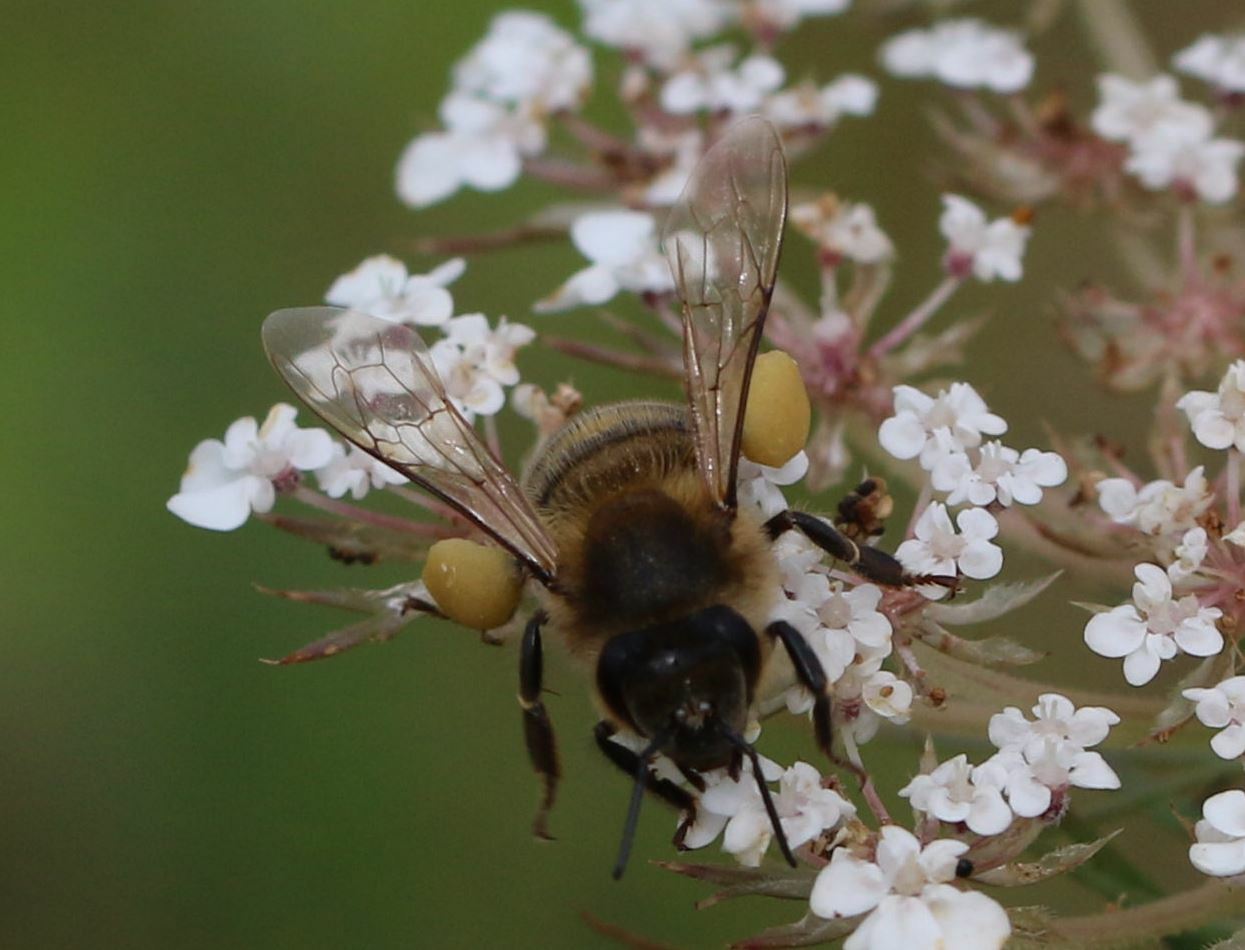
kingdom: Animalia
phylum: Arthropoda
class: Insecta
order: Hymenoptera
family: Apidae
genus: Apis
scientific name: Apis mellifera
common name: Honey bee
